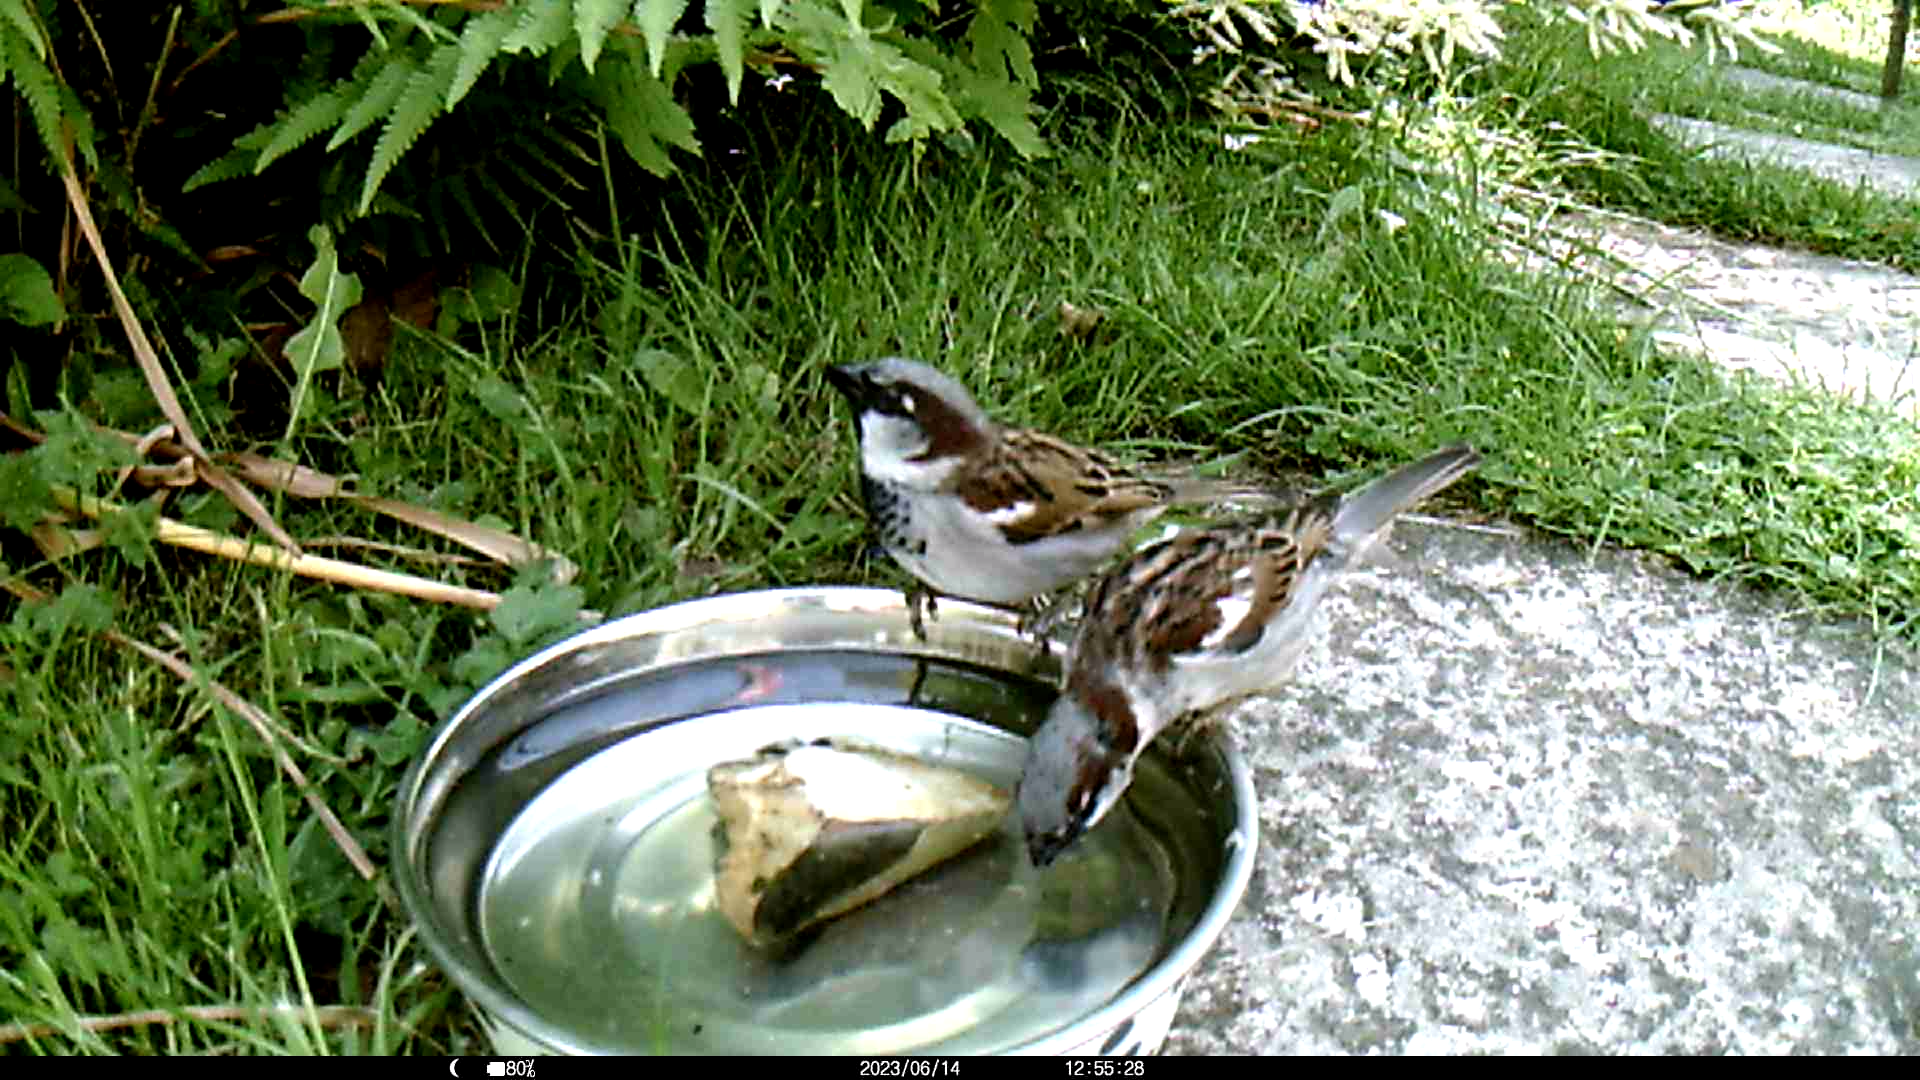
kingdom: Animalia
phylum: Chordata
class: Aves
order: Passeriformes
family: Passeridae
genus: Passer
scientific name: Passer domesticus
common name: House sparrow
